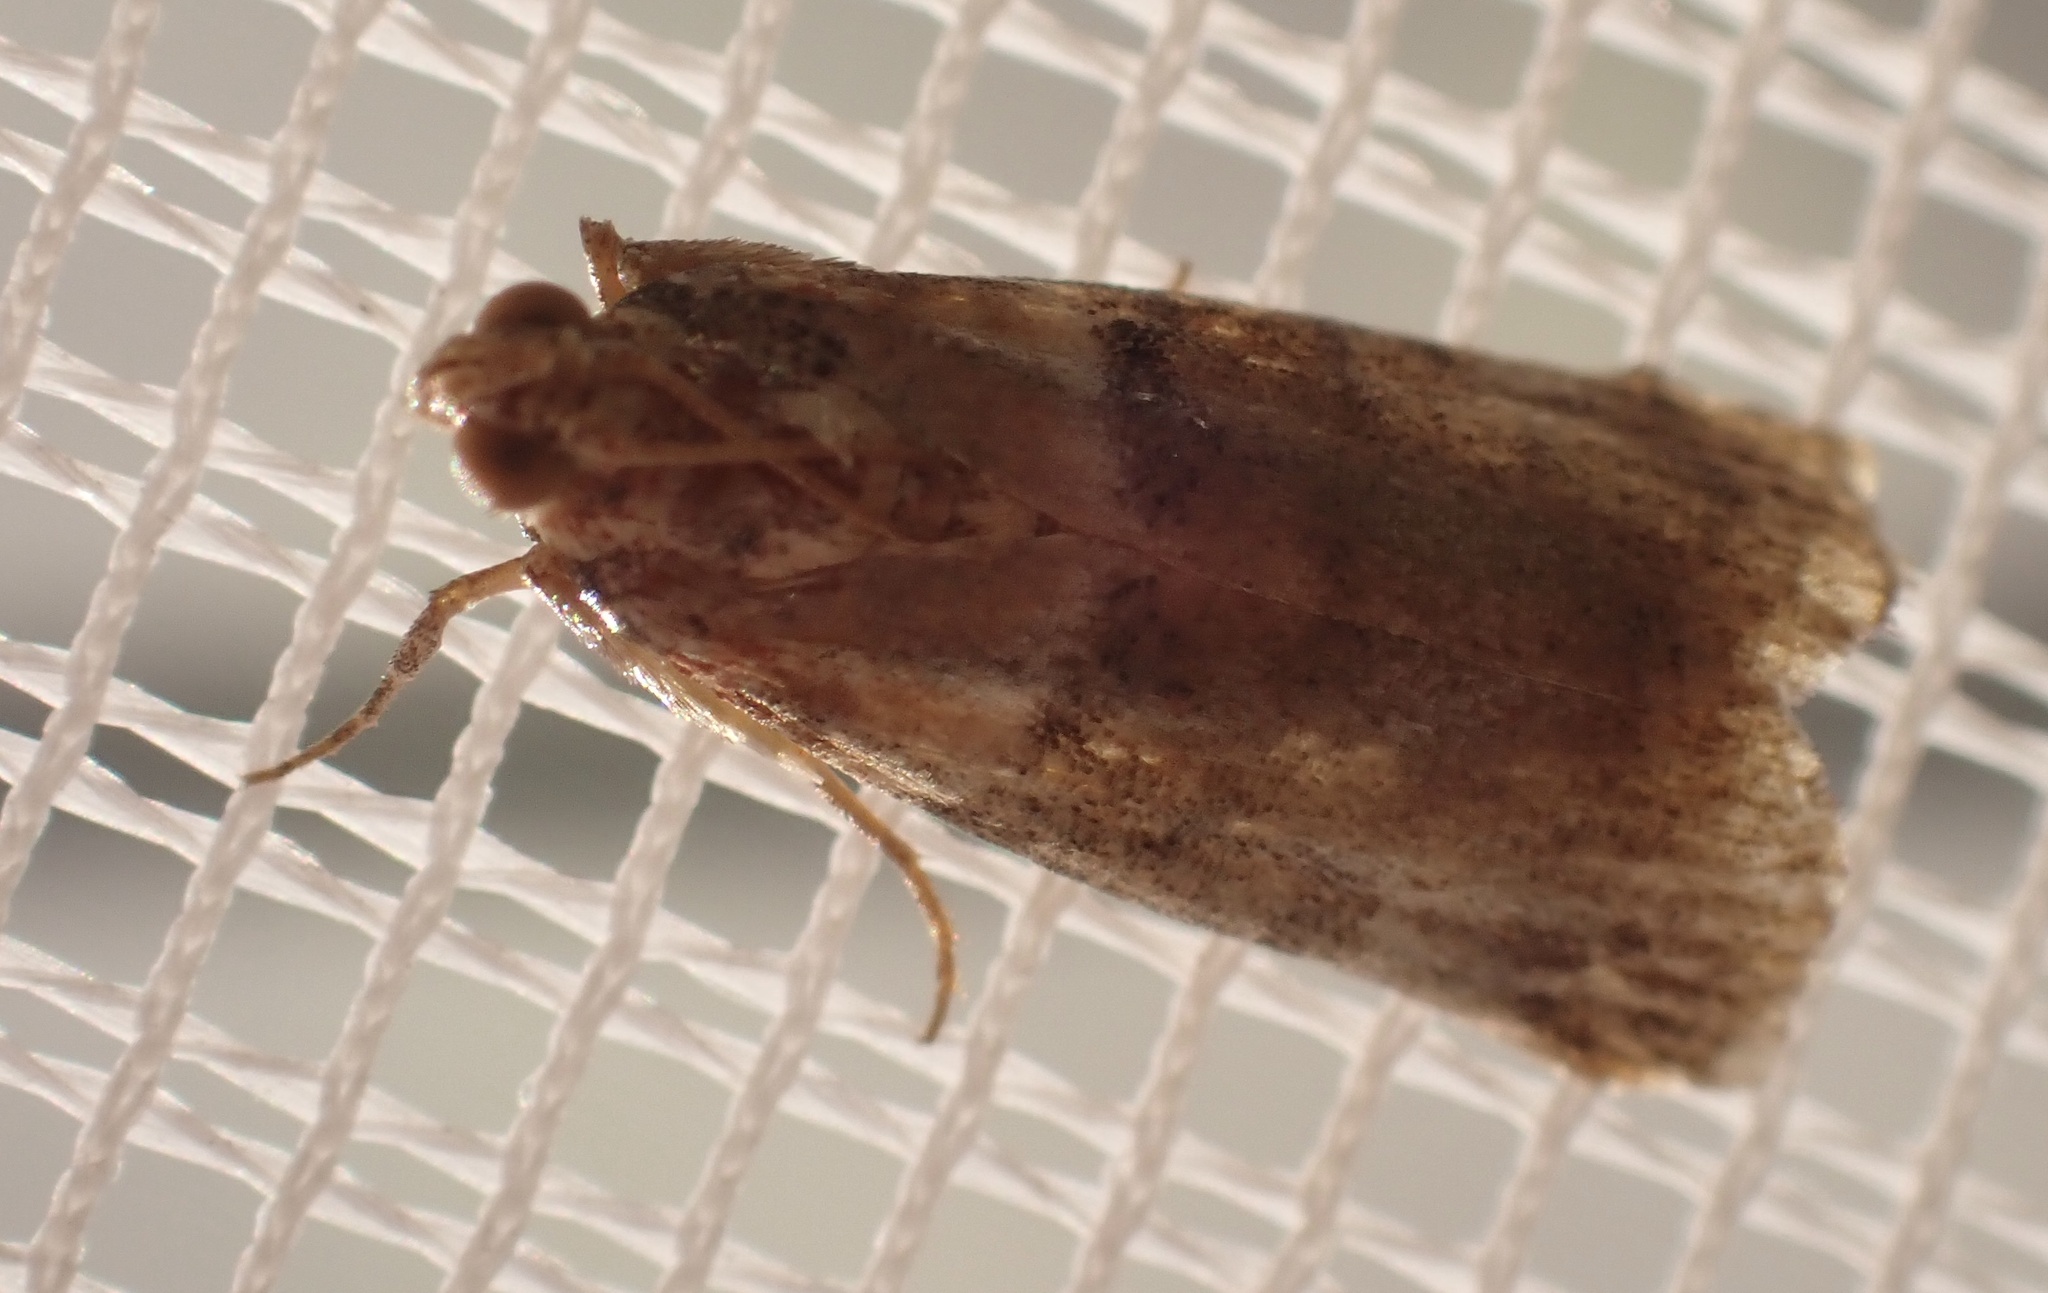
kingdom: Animalia
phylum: Arthropoda
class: Insecta
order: Lepidoptera
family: Pyralidae
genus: Acrobasis
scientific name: Acrobasis repandana
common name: Warted knot-horn
